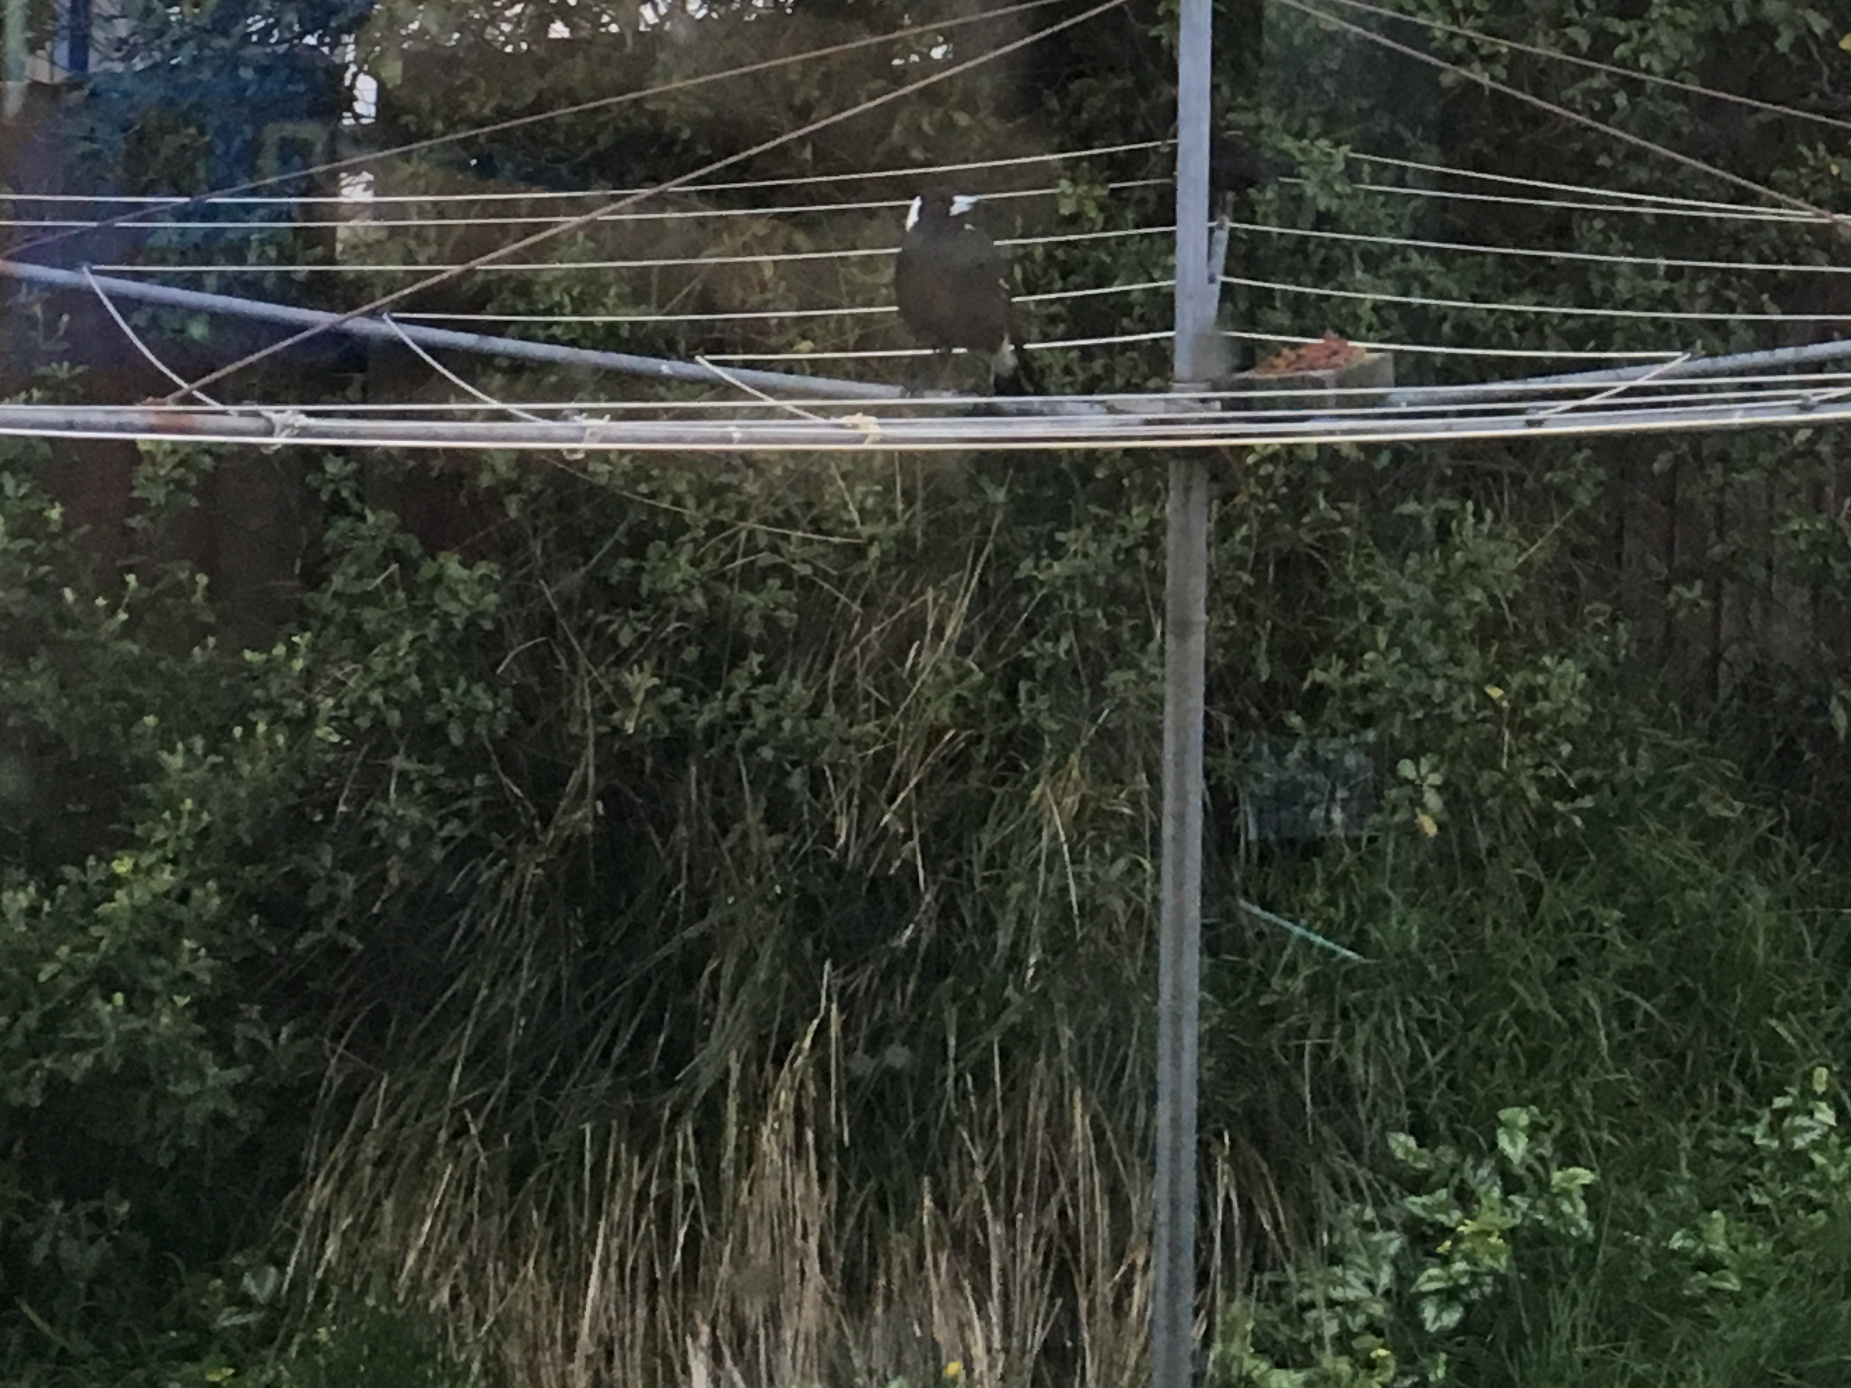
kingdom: Animalia
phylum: Chordata
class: Aves
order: Passeriformes
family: Cracticidae
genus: Gymnorhina
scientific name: Gymnorhina tibicen
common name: Australian magpie
